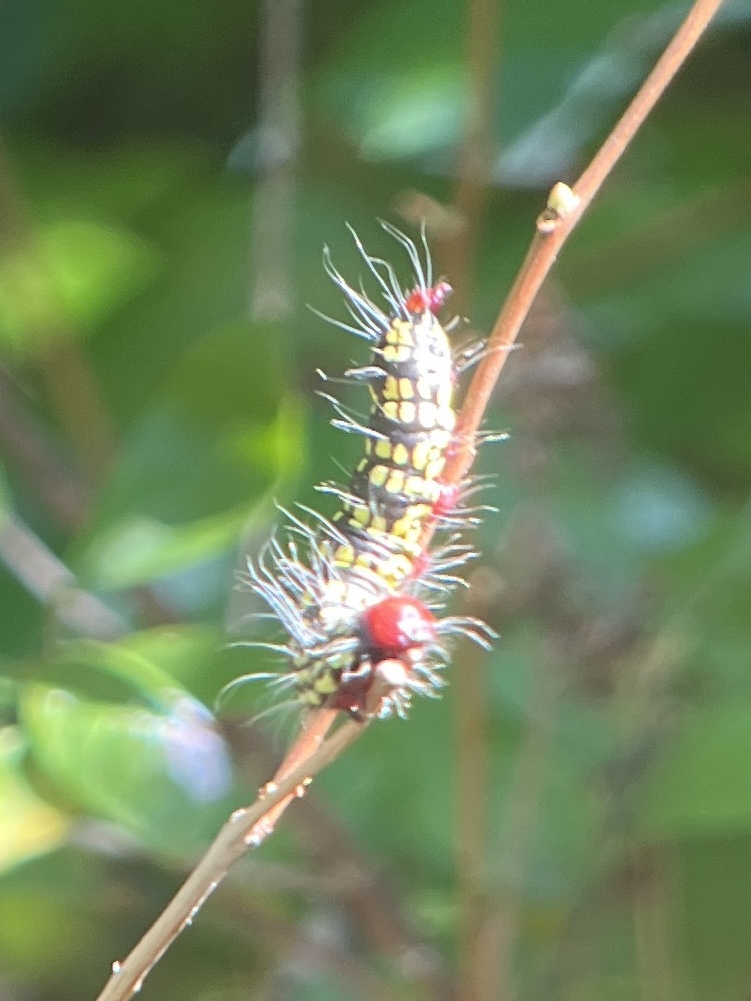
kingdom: Animalia
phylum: Arthropoda
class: Insecta
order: Lepidoptera
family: Notodontidae
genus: Datana
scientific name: Datana major
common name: Azalea caterpillar
